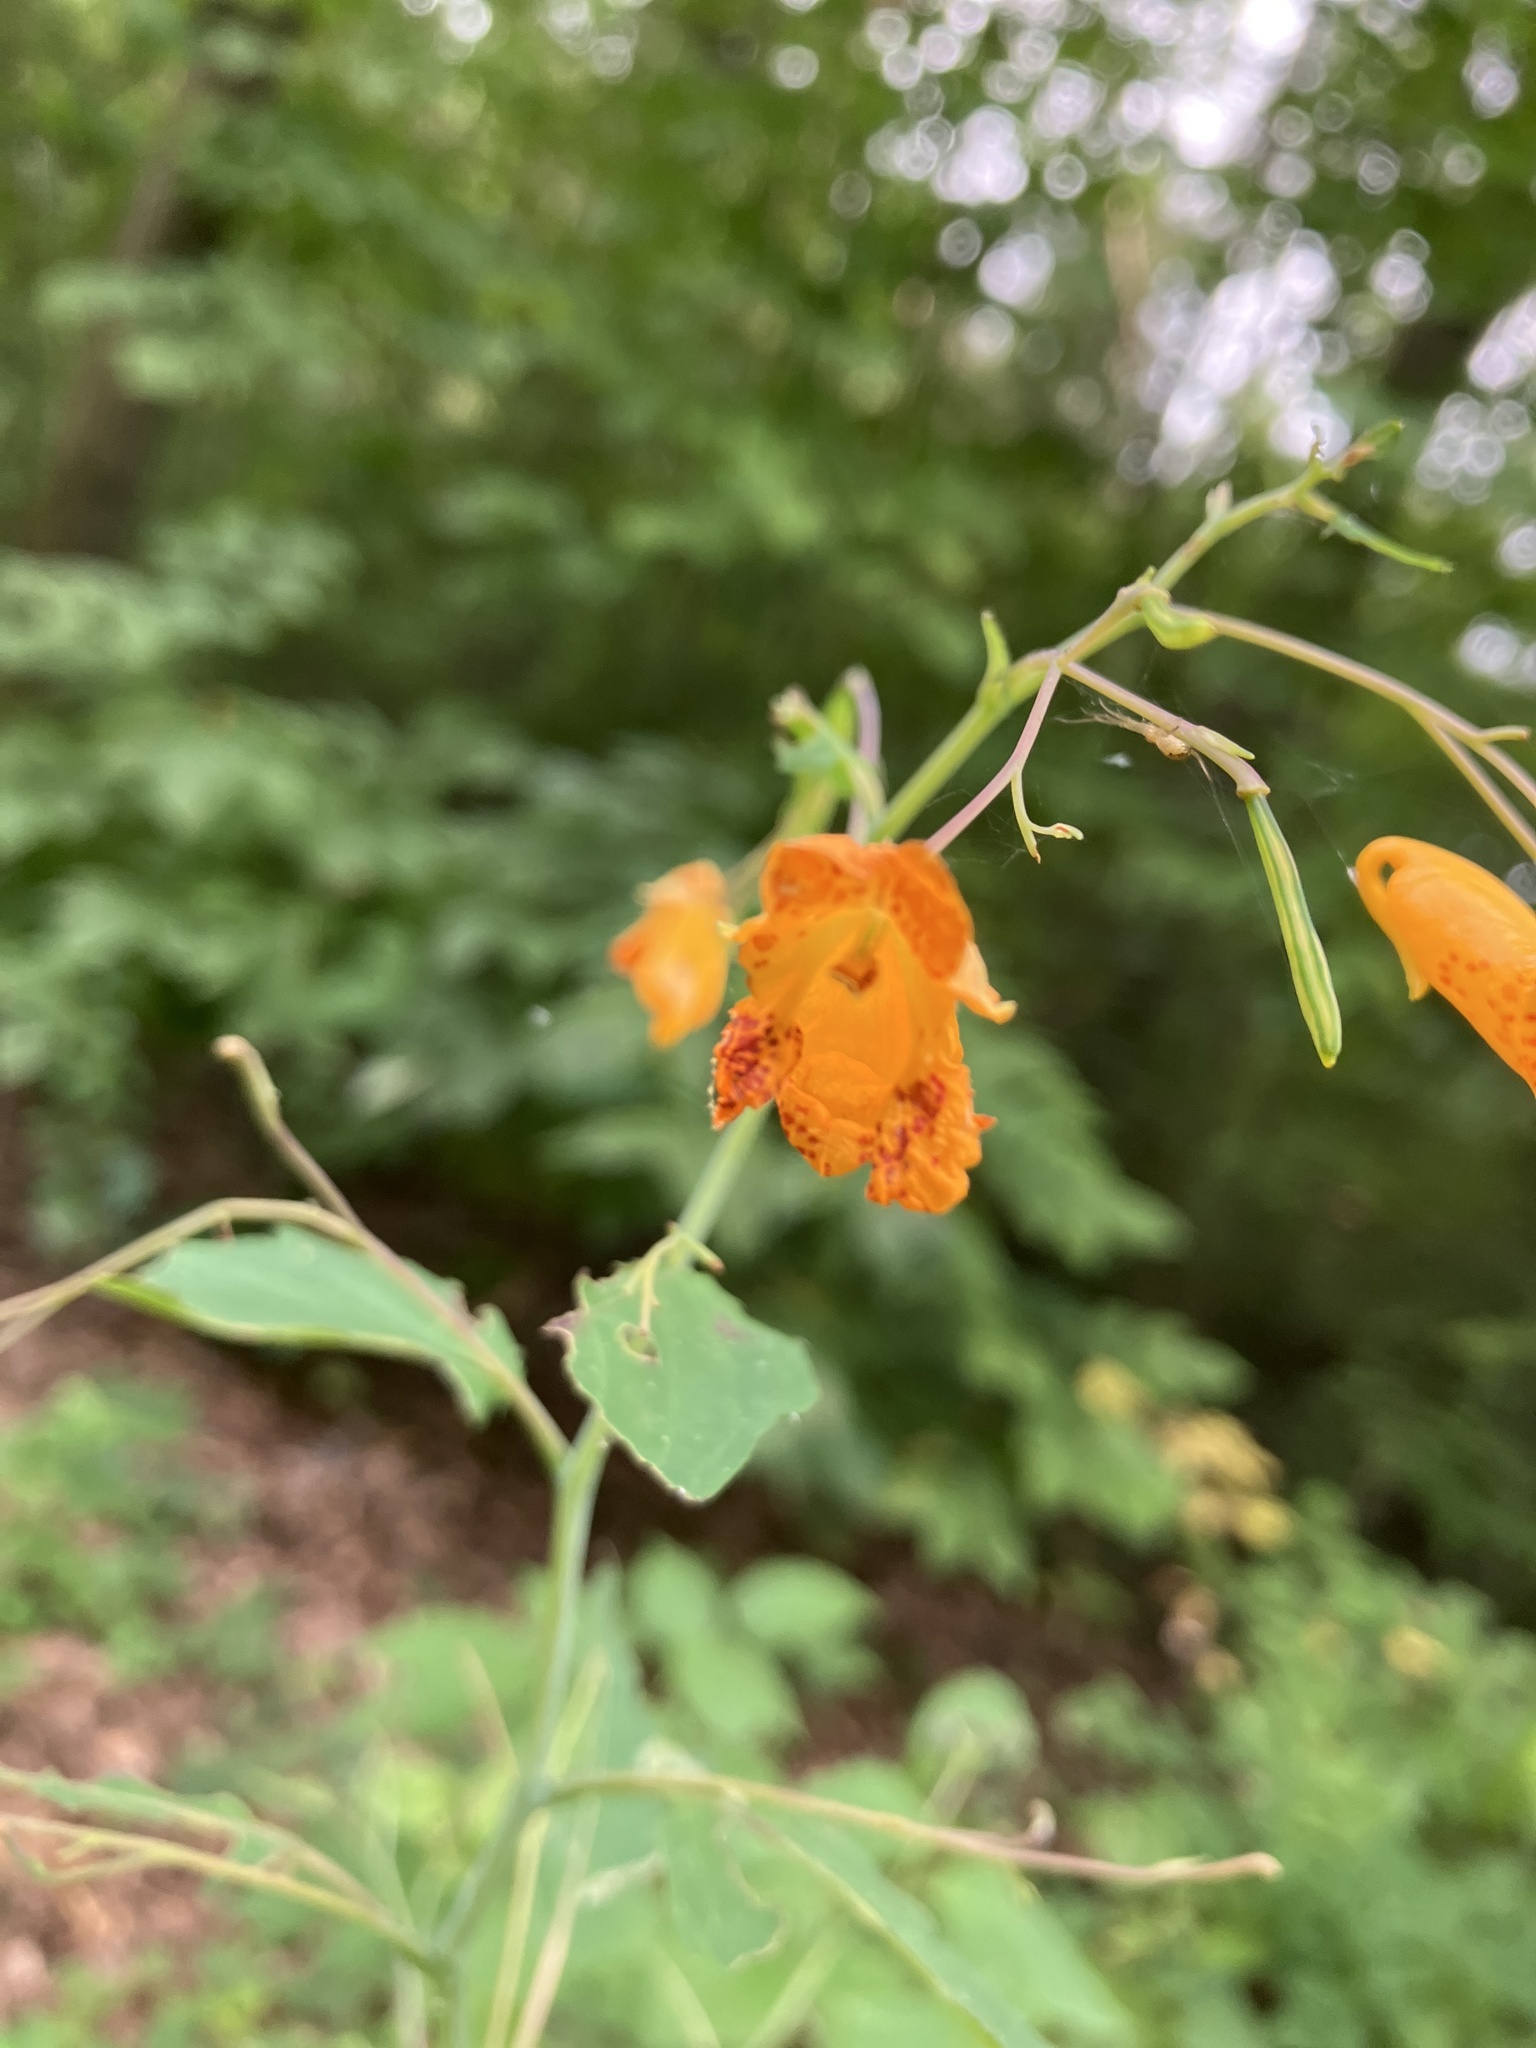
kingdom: Plantae
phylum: Tracheophyta
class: Magnoliopsida
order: Ericales
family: Balsaminaceae
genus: Impatiens
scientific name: Impatiens capensis
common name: Orange balsam
